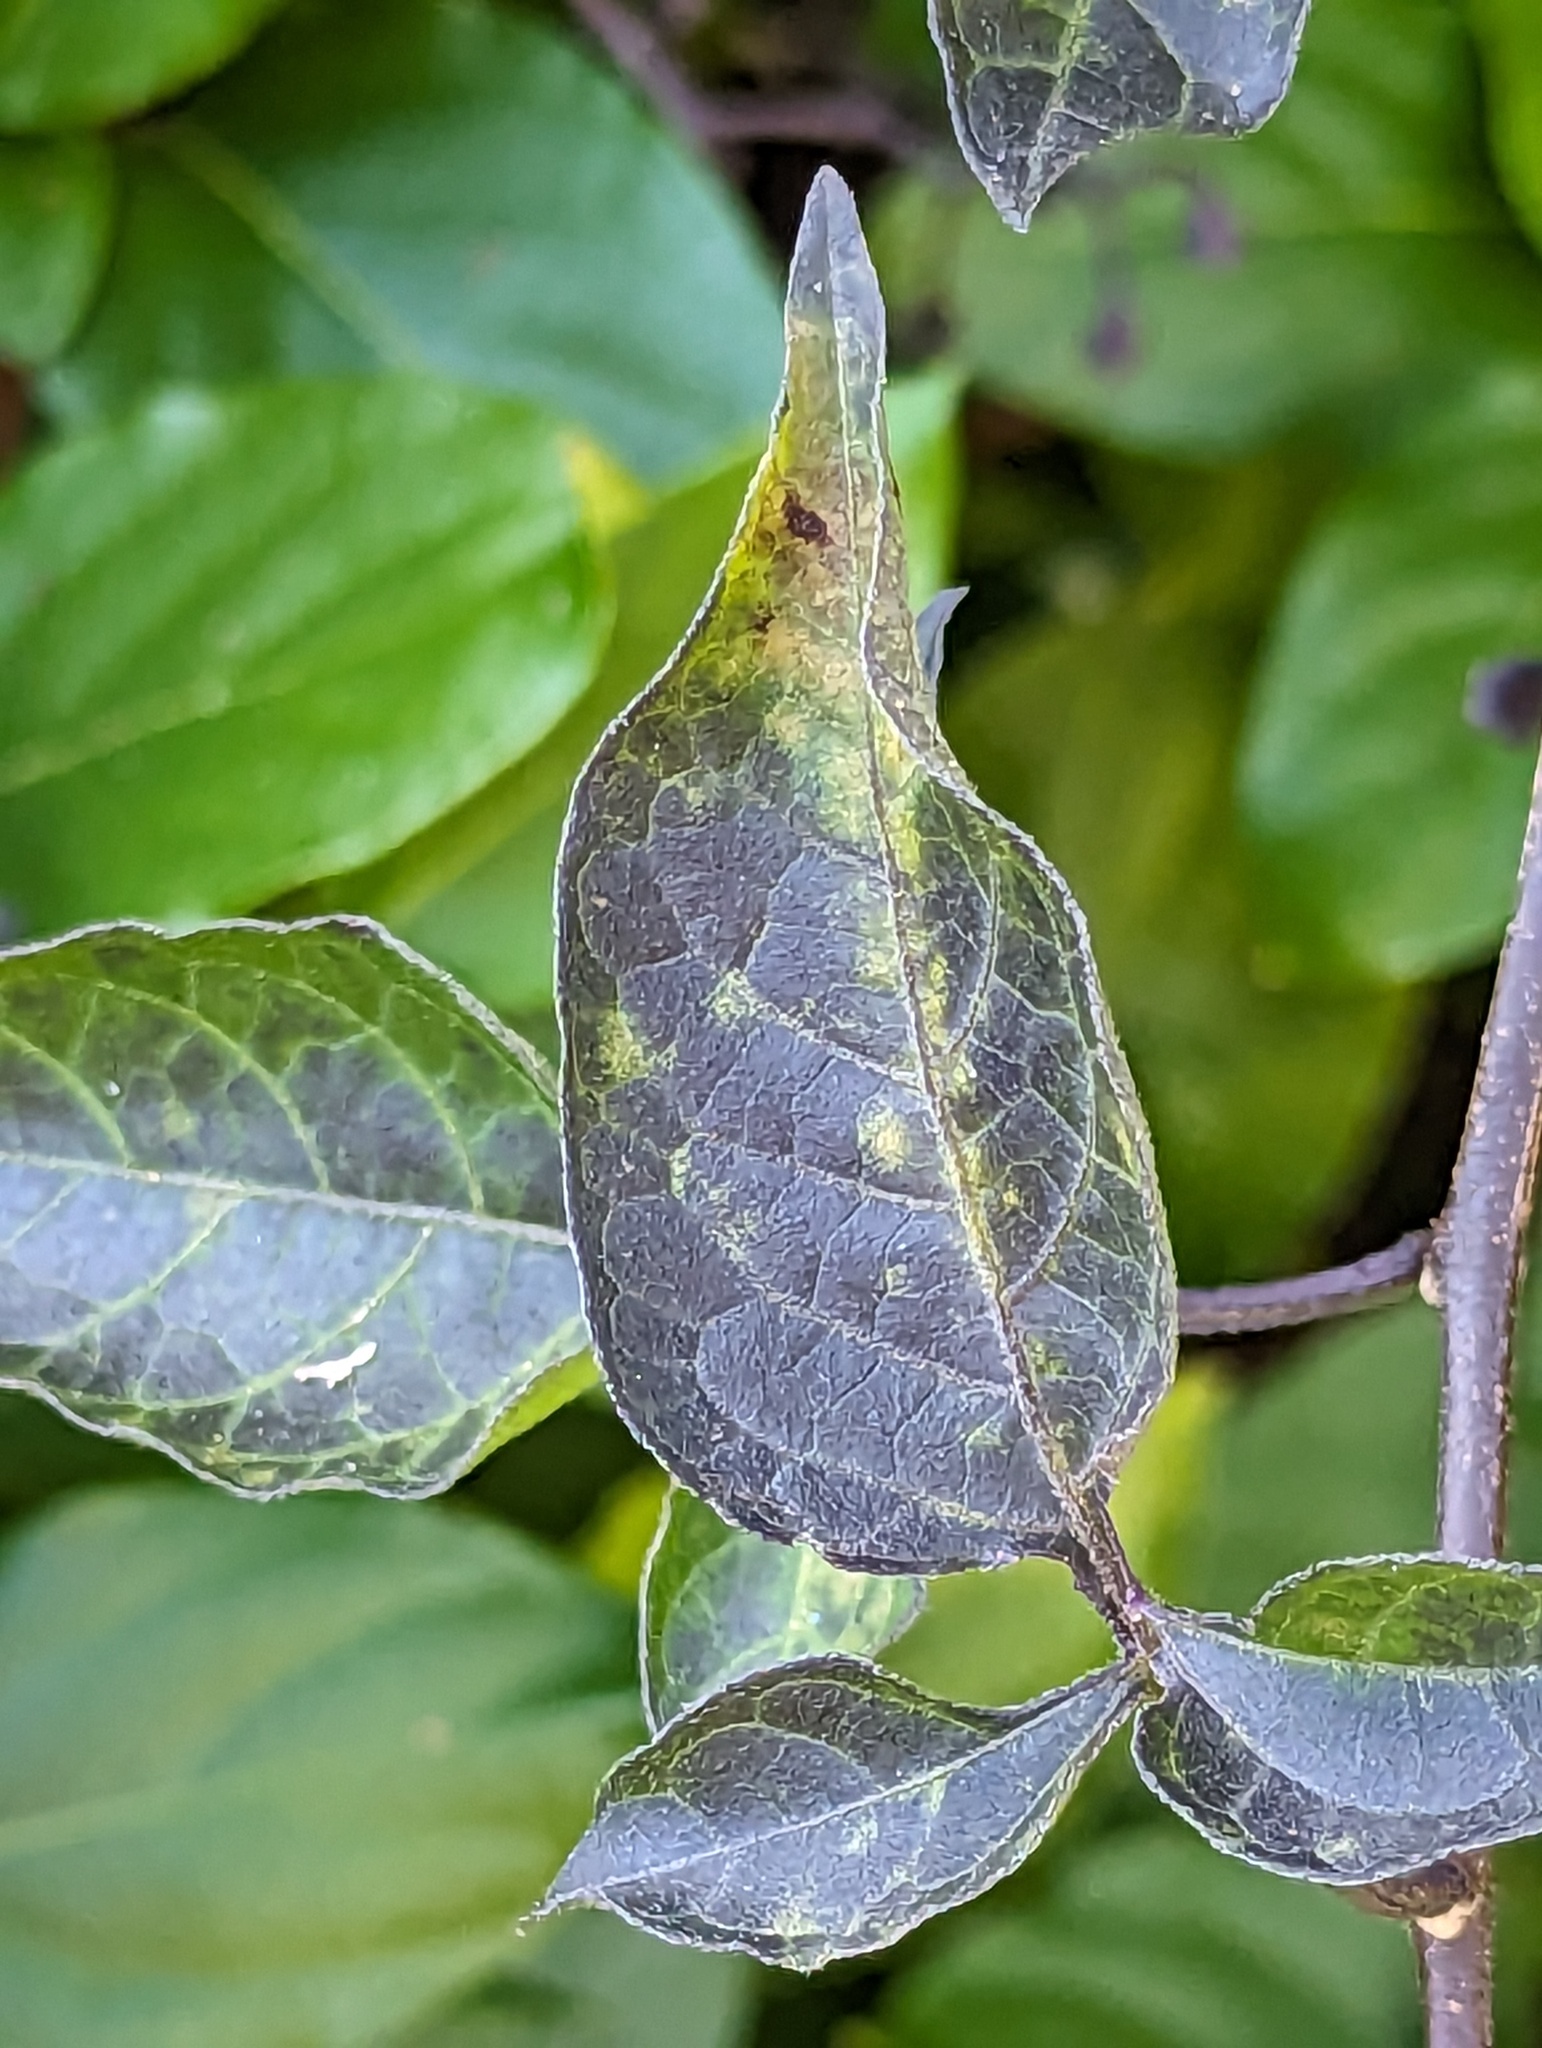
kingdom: Plantae
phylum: Tracheophyta
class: Magnoliopsida
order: Solanales
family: Solanaceae
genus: Solanum
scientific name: Solanum dulcamara
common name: Climbing nightshade
